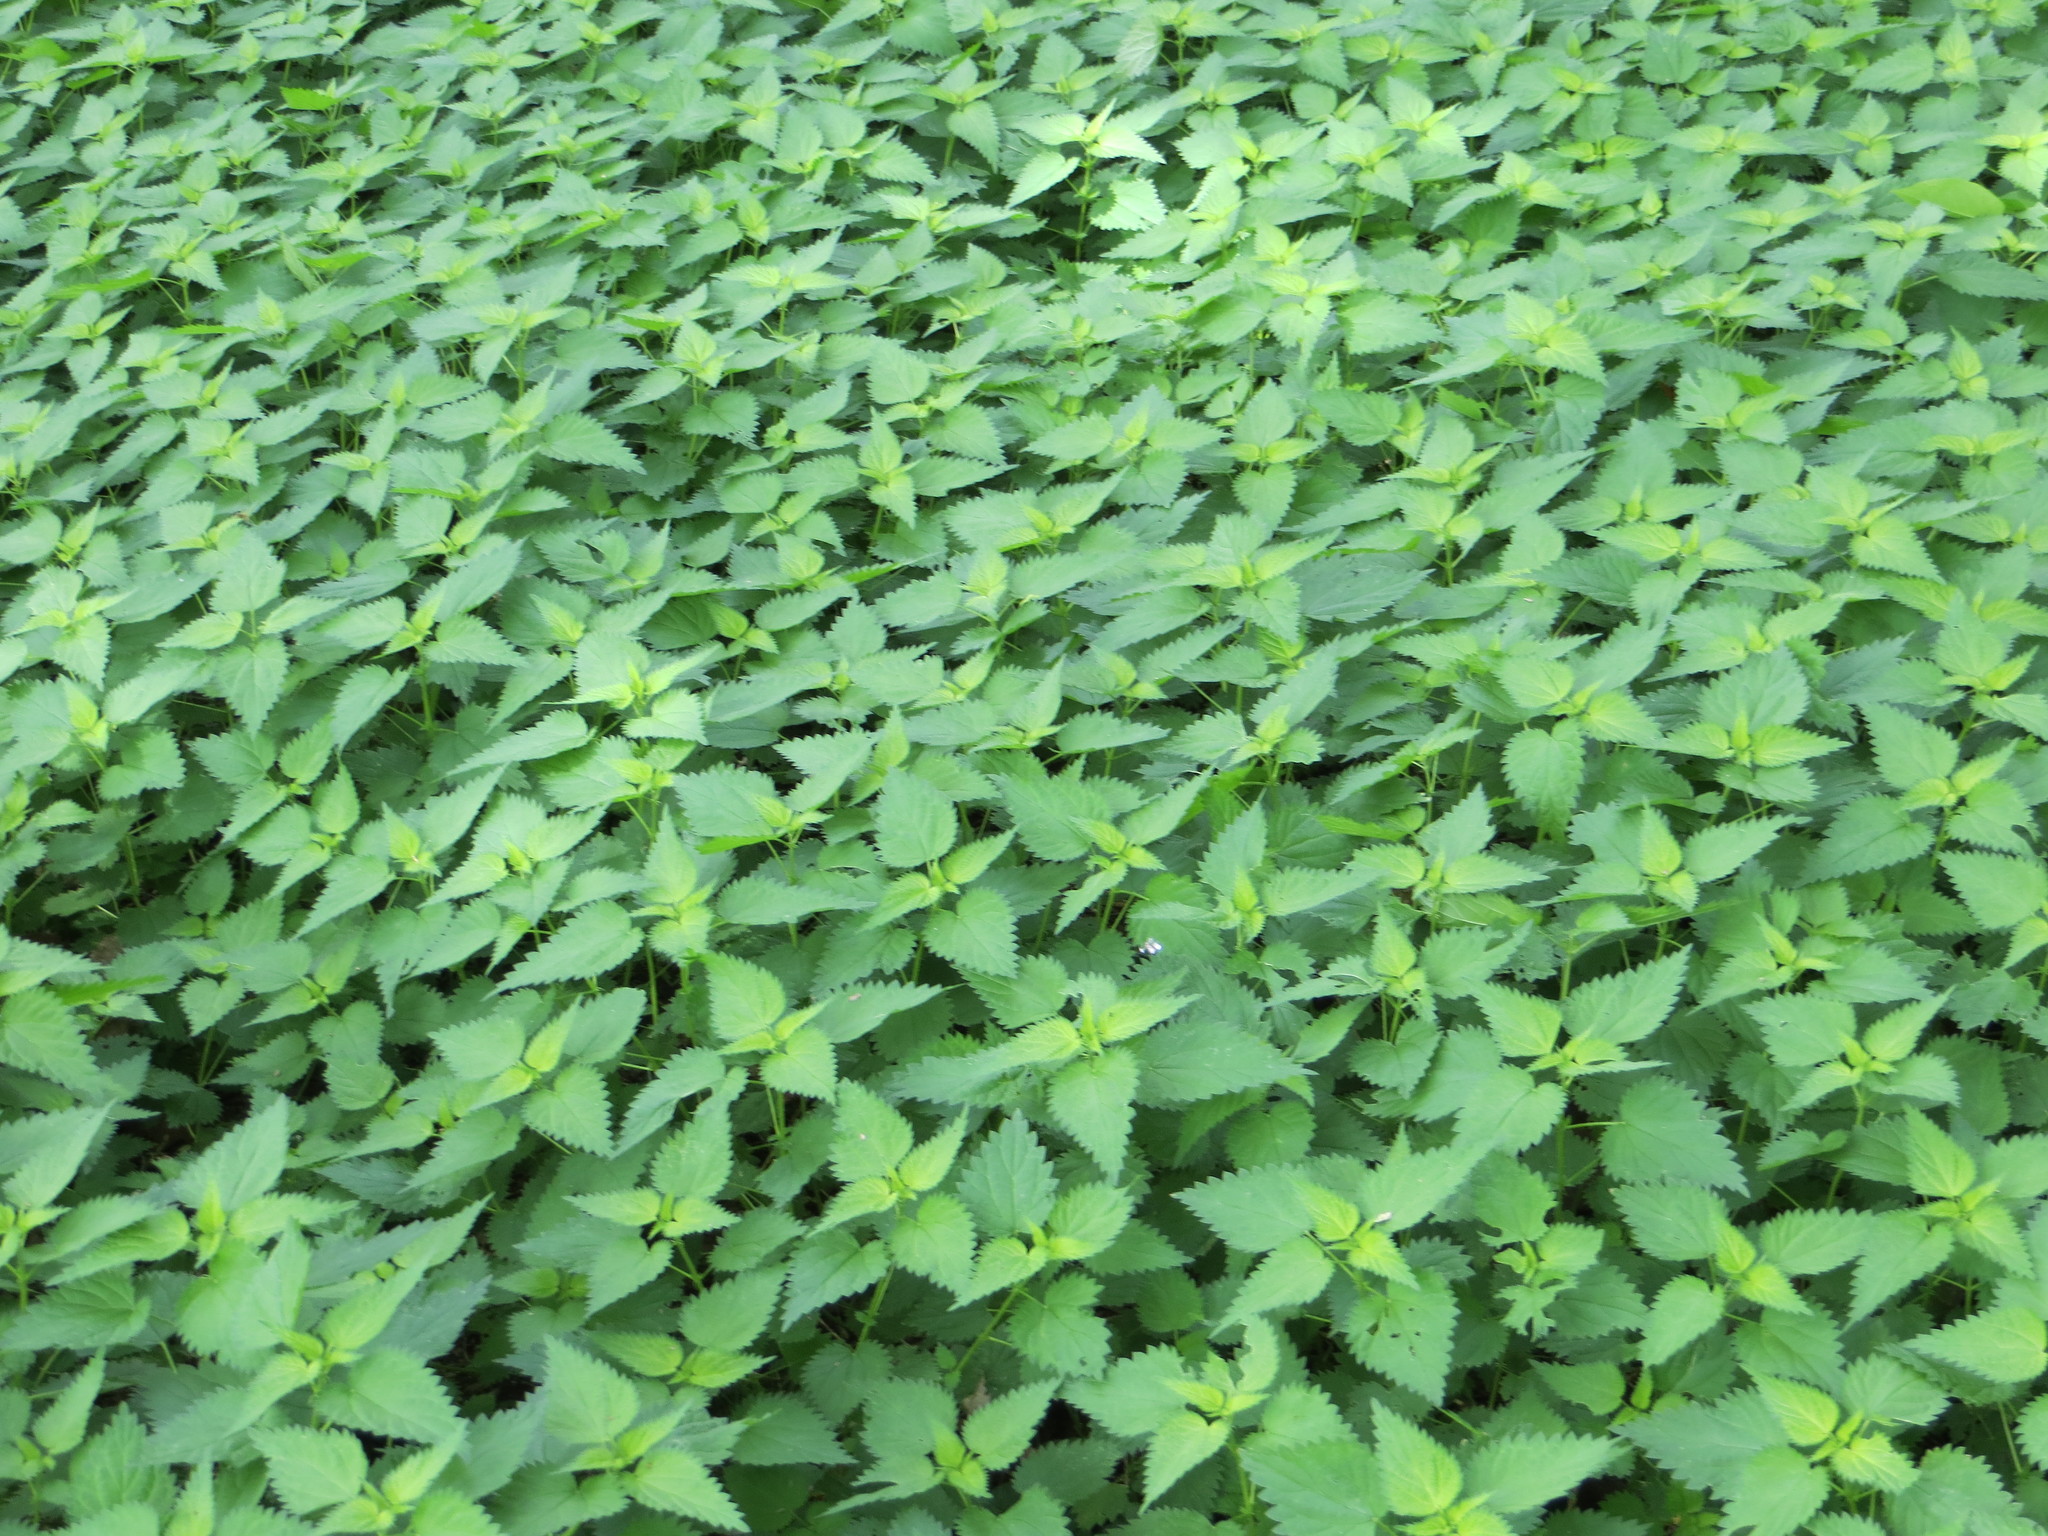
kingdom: Plantae
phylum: Tracheophyta
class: Magnoliopsida
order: Rosales
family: Urticaceae
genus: Urtica
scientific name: Urtica dioica
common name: Common nettle
